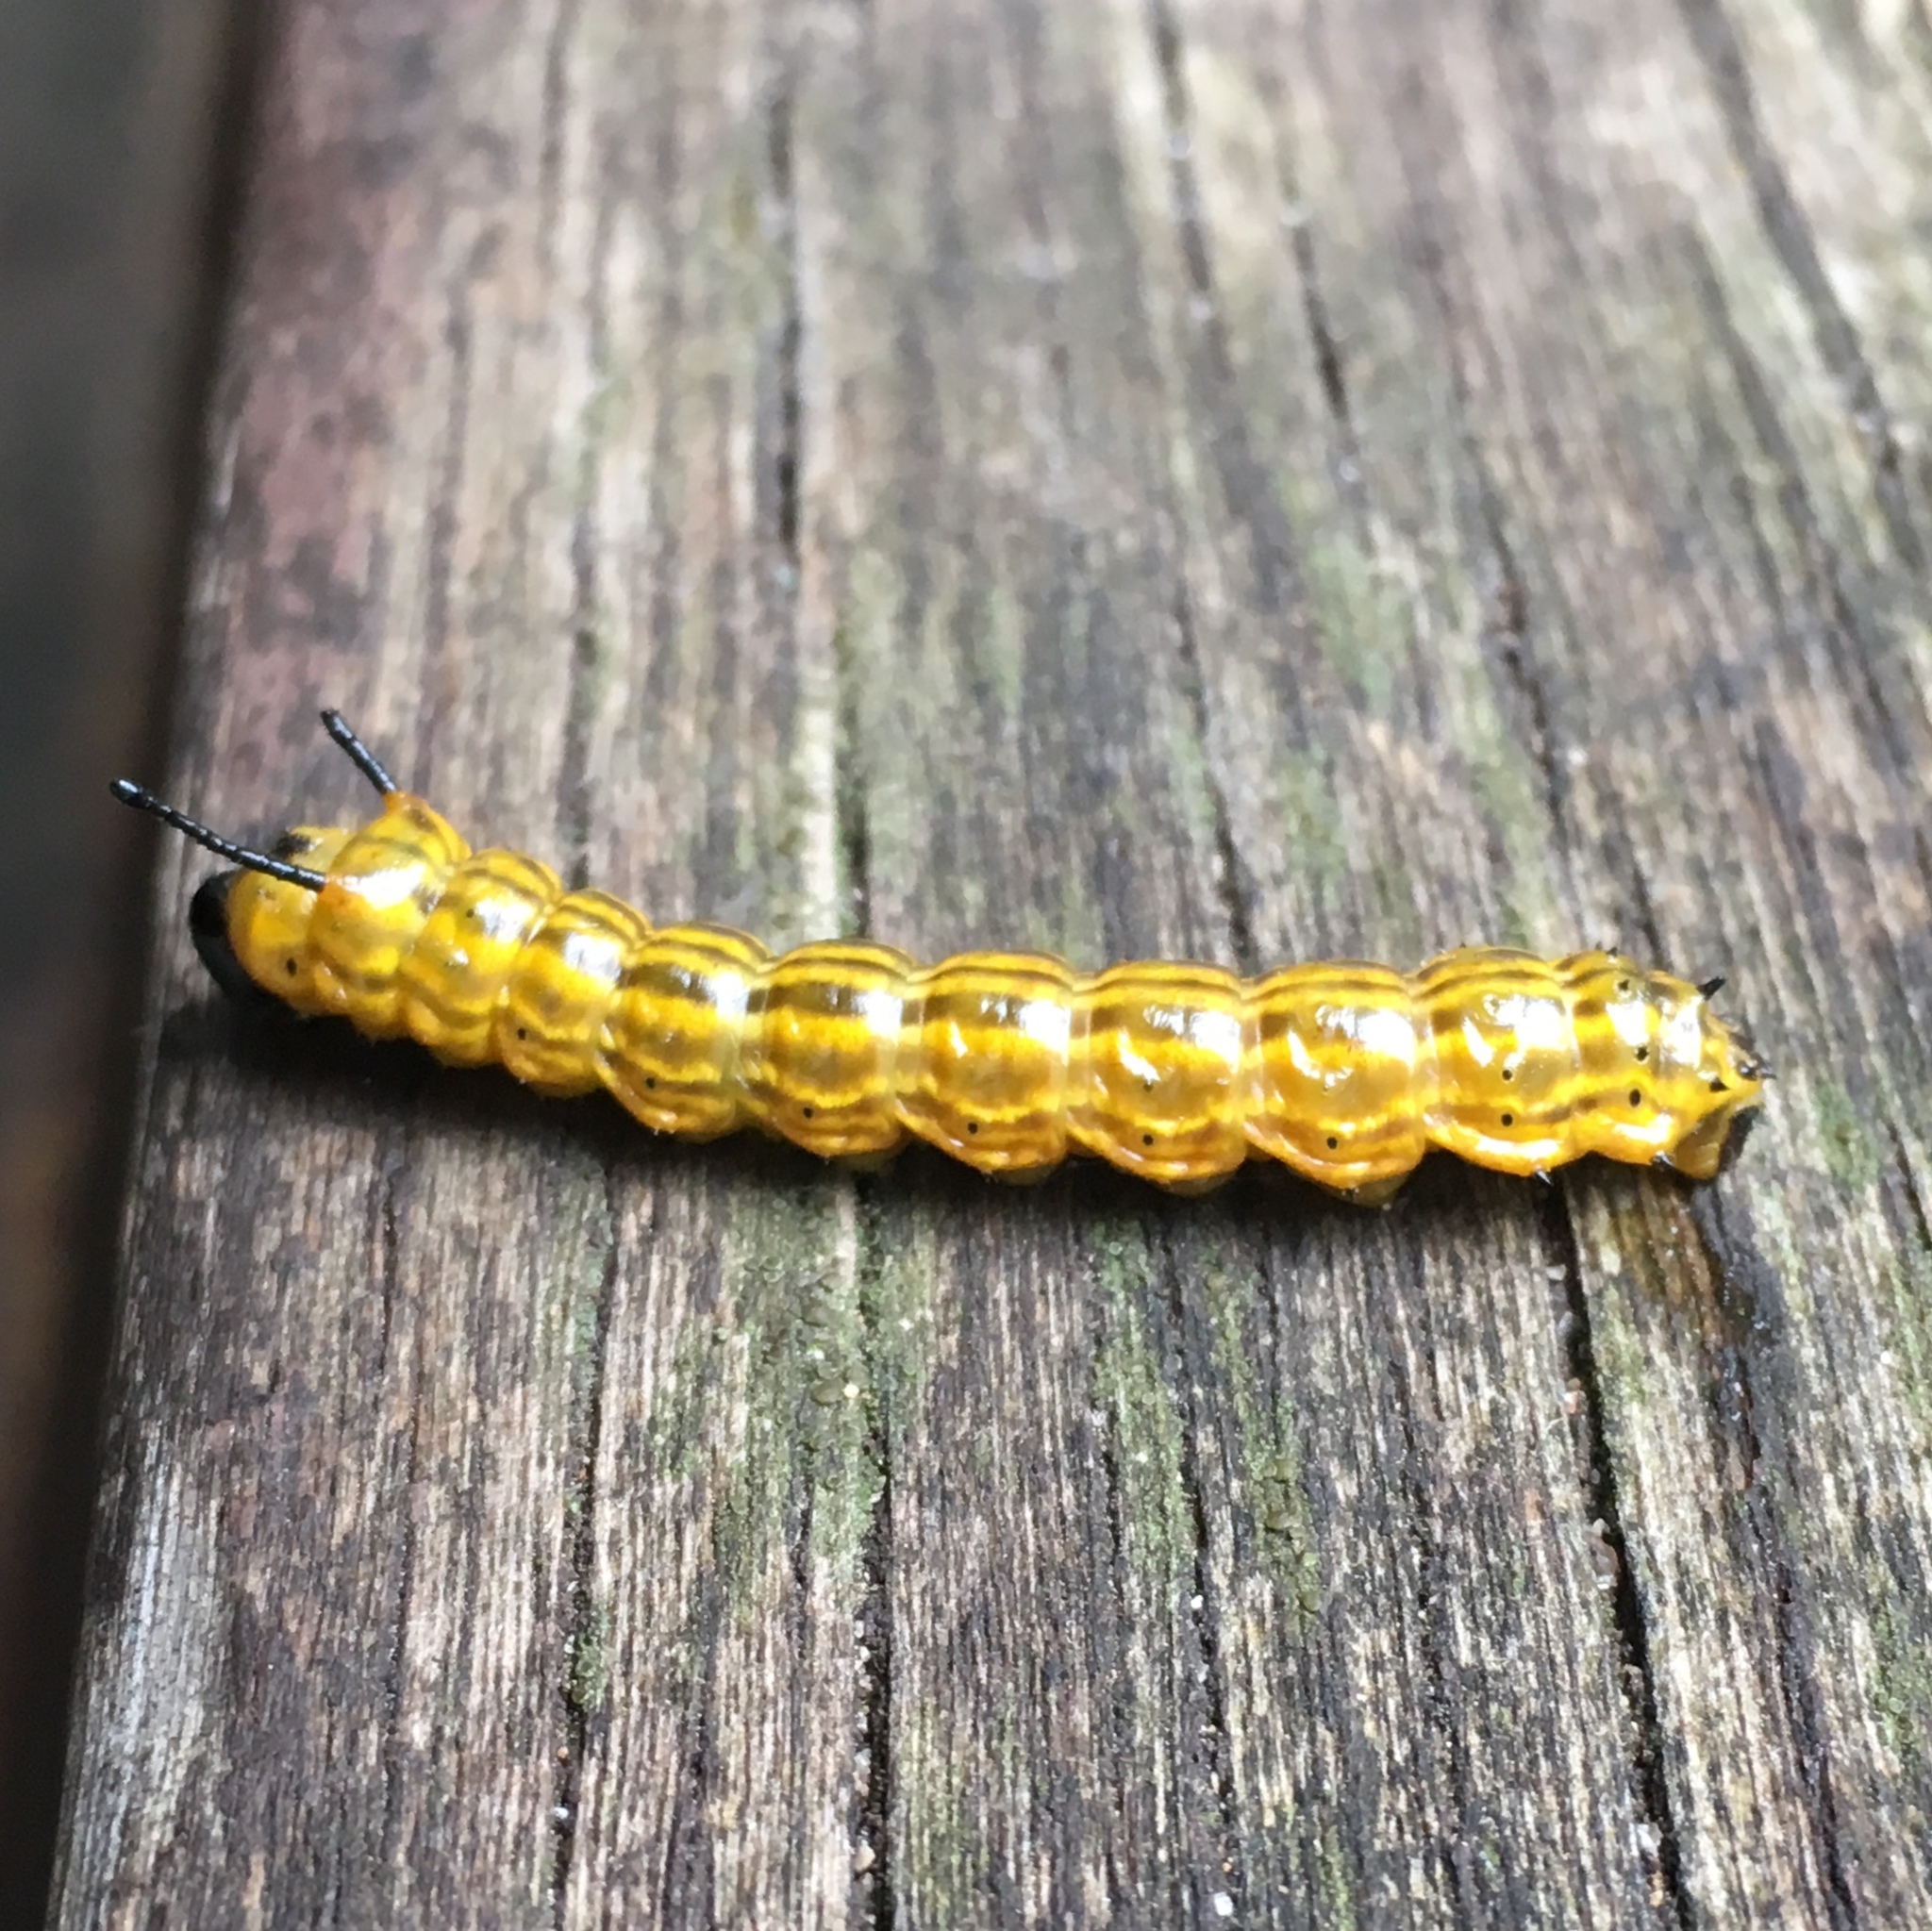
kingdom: Animalia
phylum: Arthropoda
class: Insecta
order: Lepidoptera
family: Saturniidae
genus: Anisota
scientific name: Anisota senatoria
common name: Orange-striped oakworm moth
